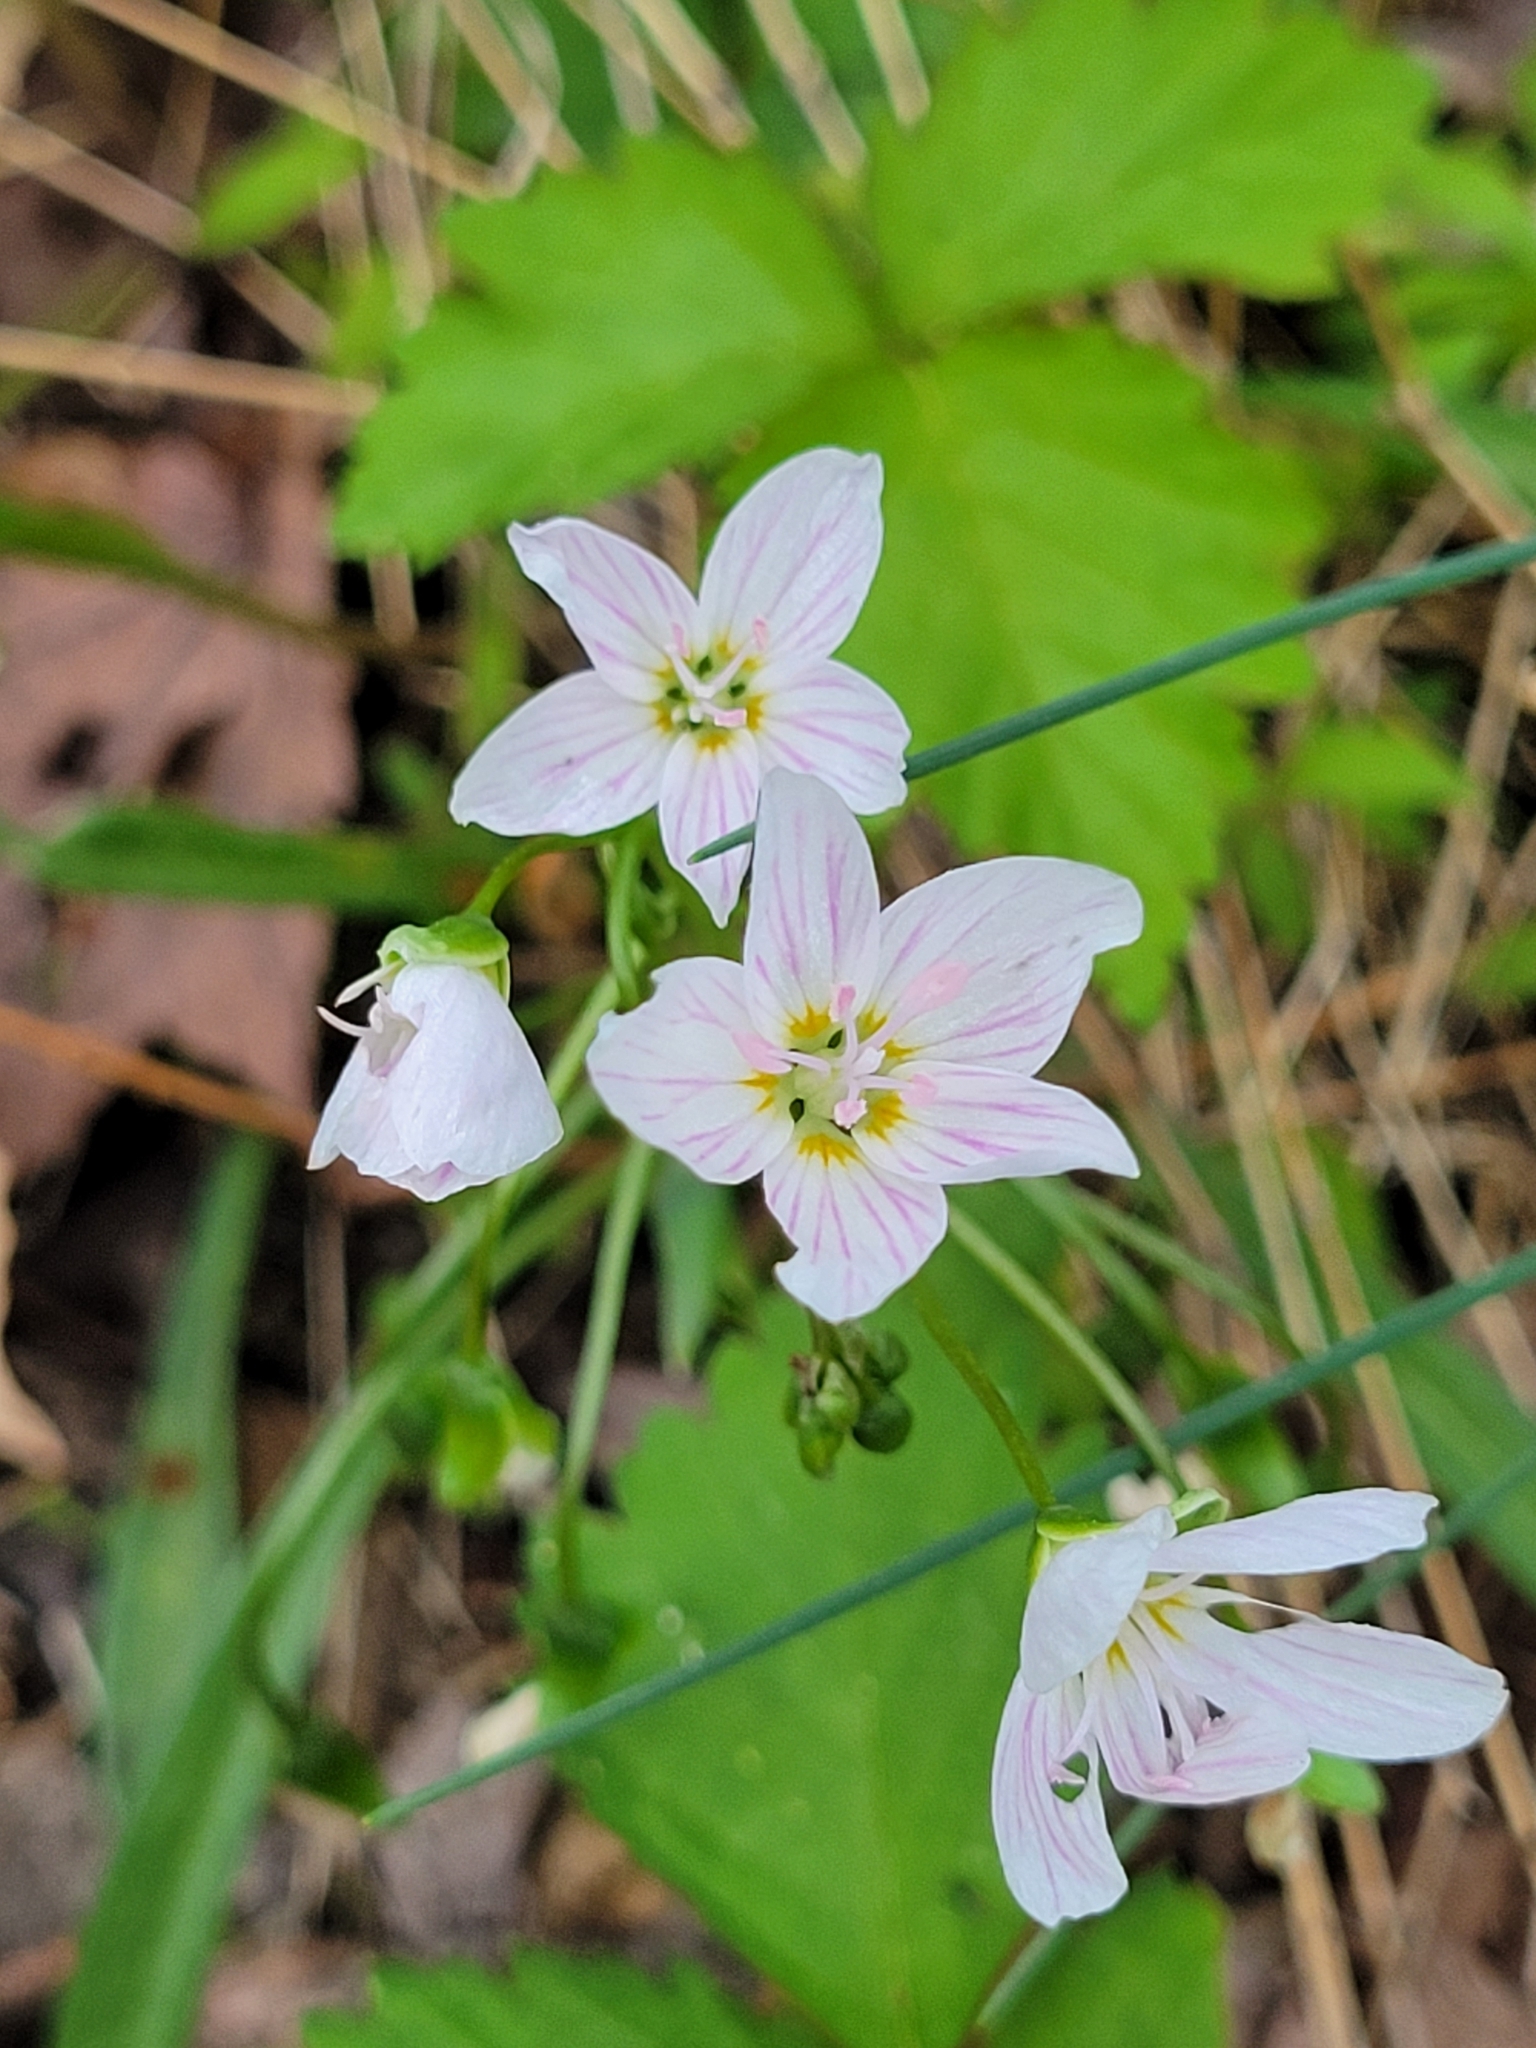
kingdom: Plantae
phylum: Tracheophyta
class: Magnoliopsida
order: Caryophyllales
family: Montiaceae
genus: Claytonia
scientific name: Claytonia virginica
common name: Virginia springbeauty
